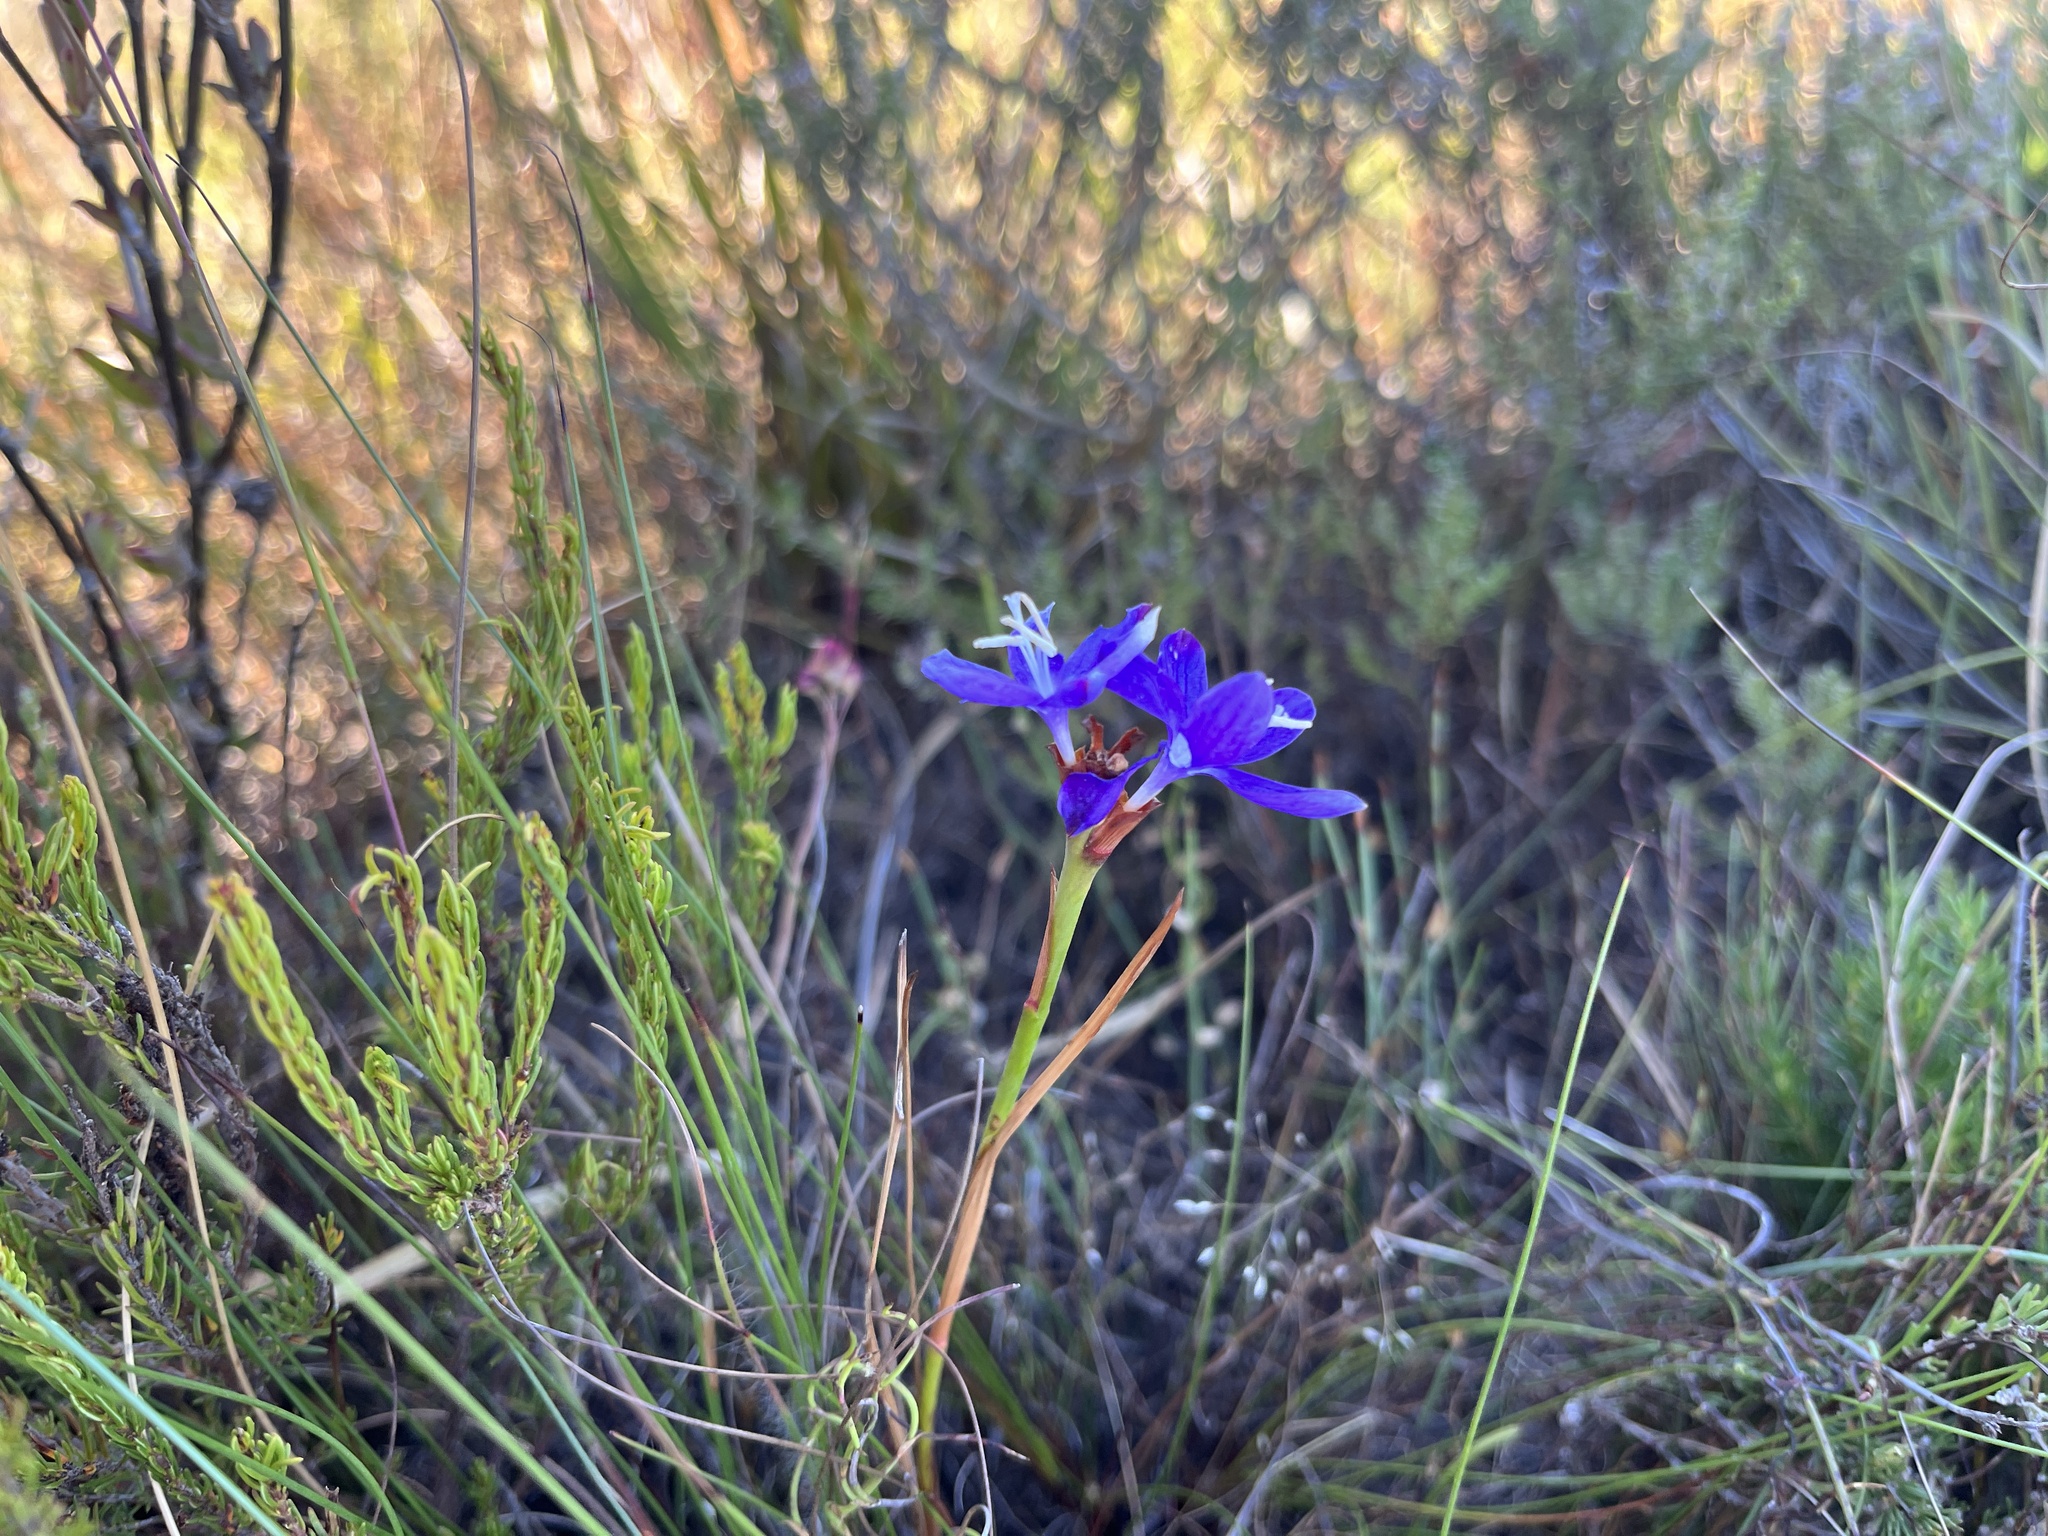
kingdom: Plantae
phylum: Tracheophyta
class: Liliopsida
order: Asparagales
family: Iridaceae
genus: Thereianthus
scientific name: Thereianthus bracteolatus
